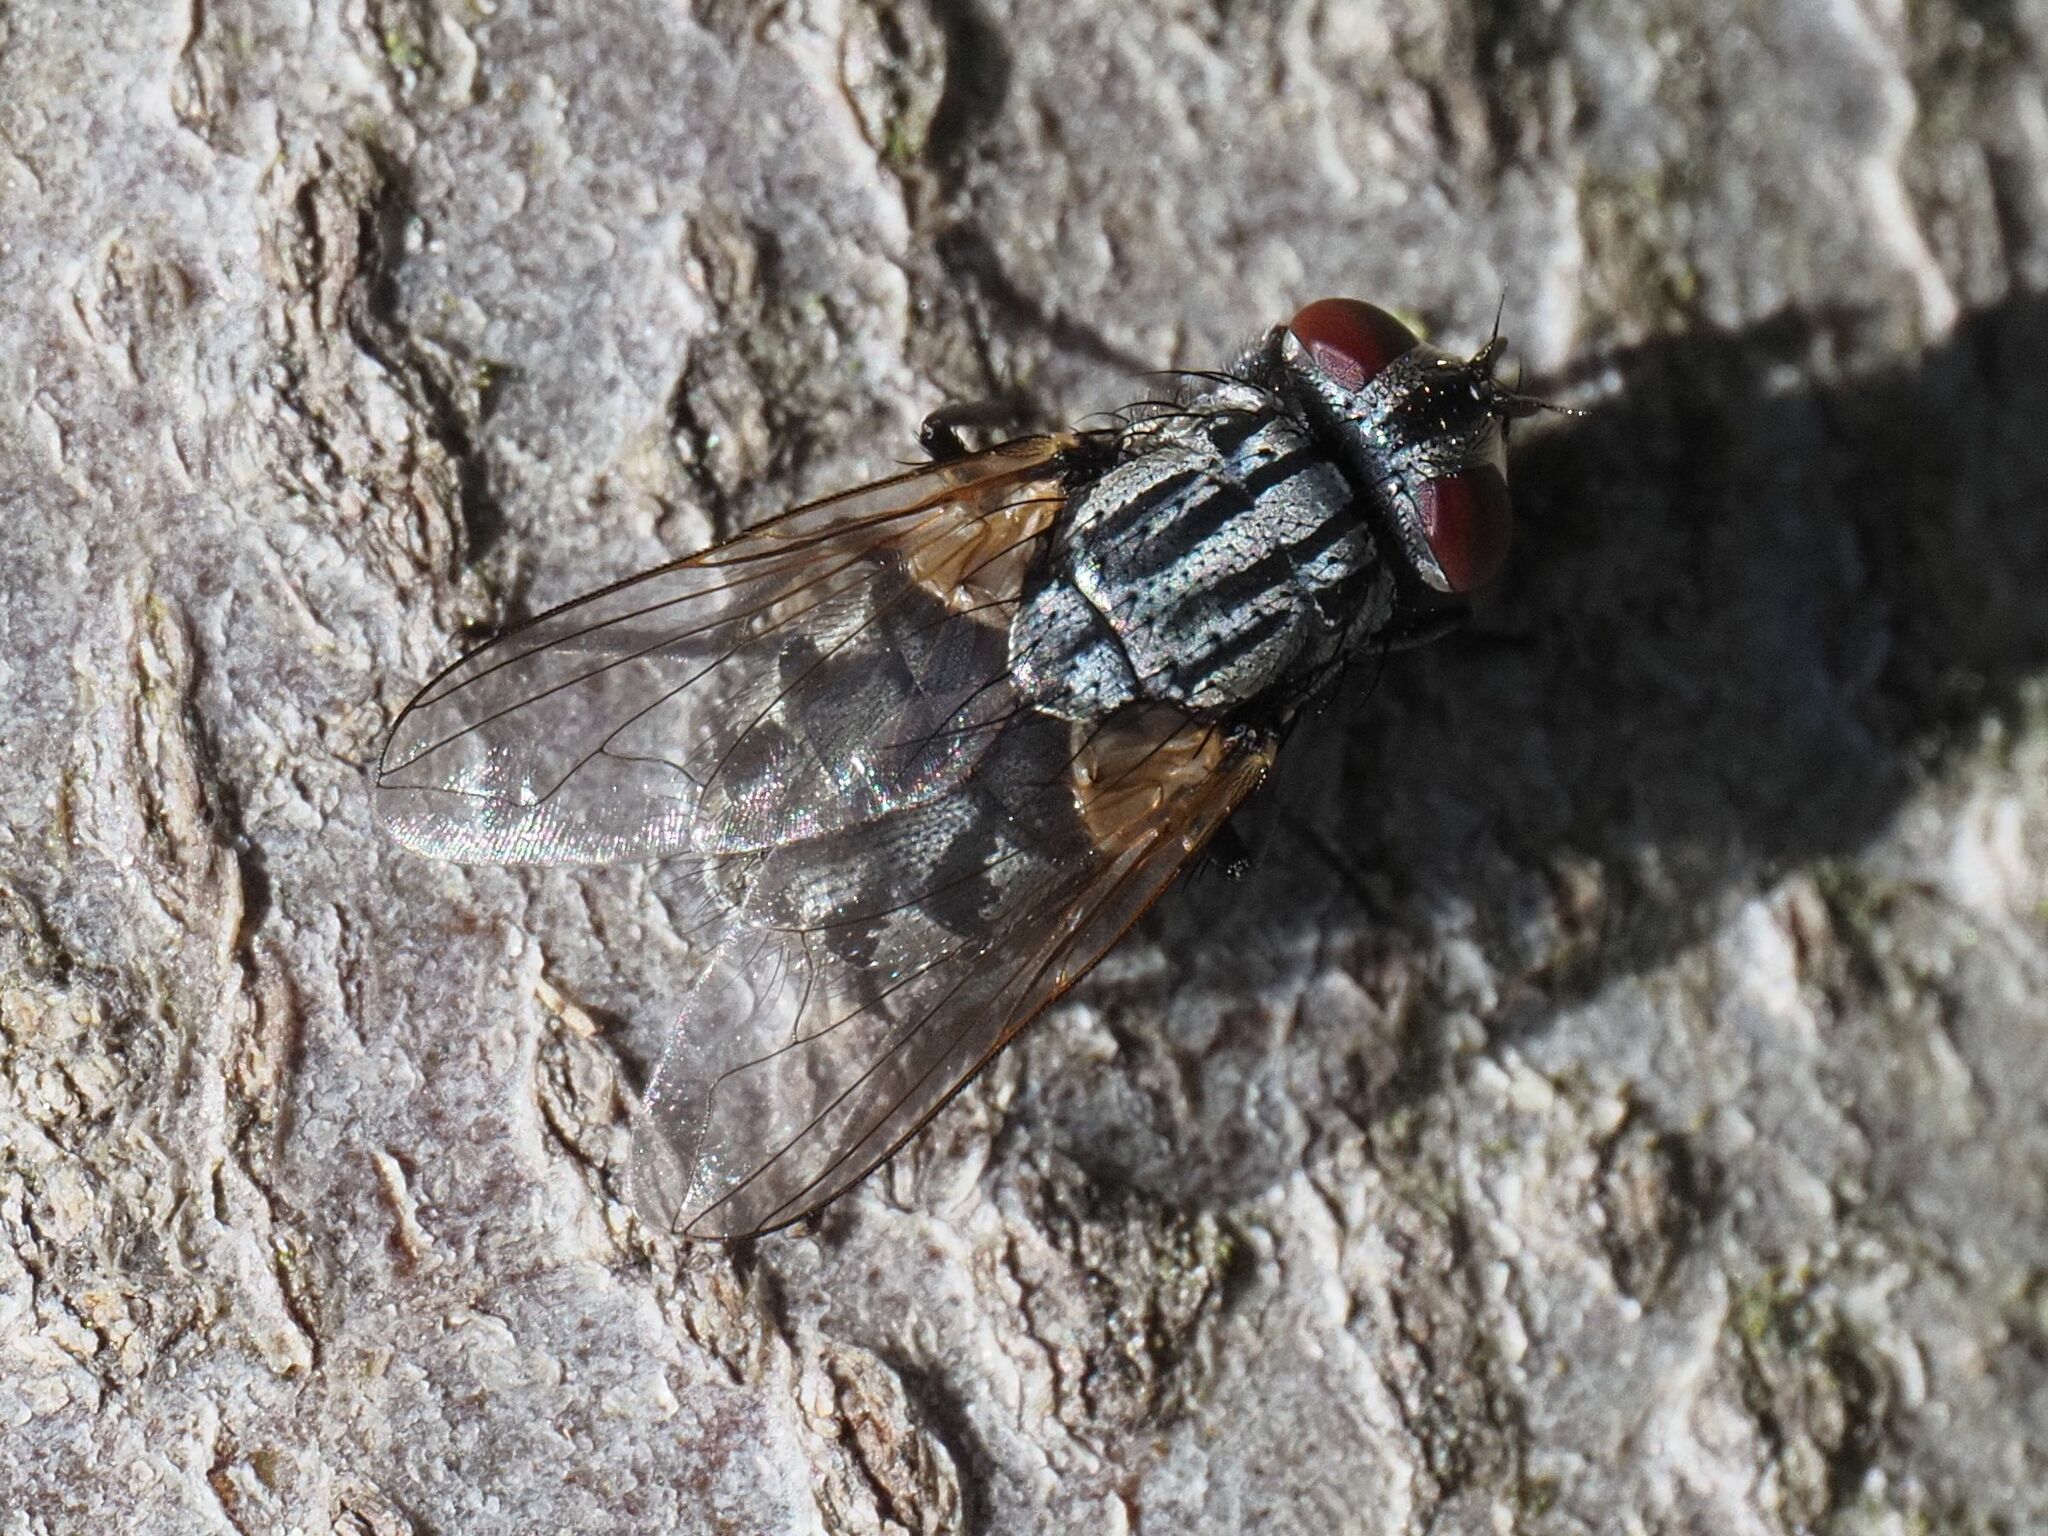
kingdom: Animalia
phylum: Arthropoda
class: Insecta
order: Diptera
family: Muscidae
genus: Musca
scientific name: Musca autumnalis
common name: Face fly
